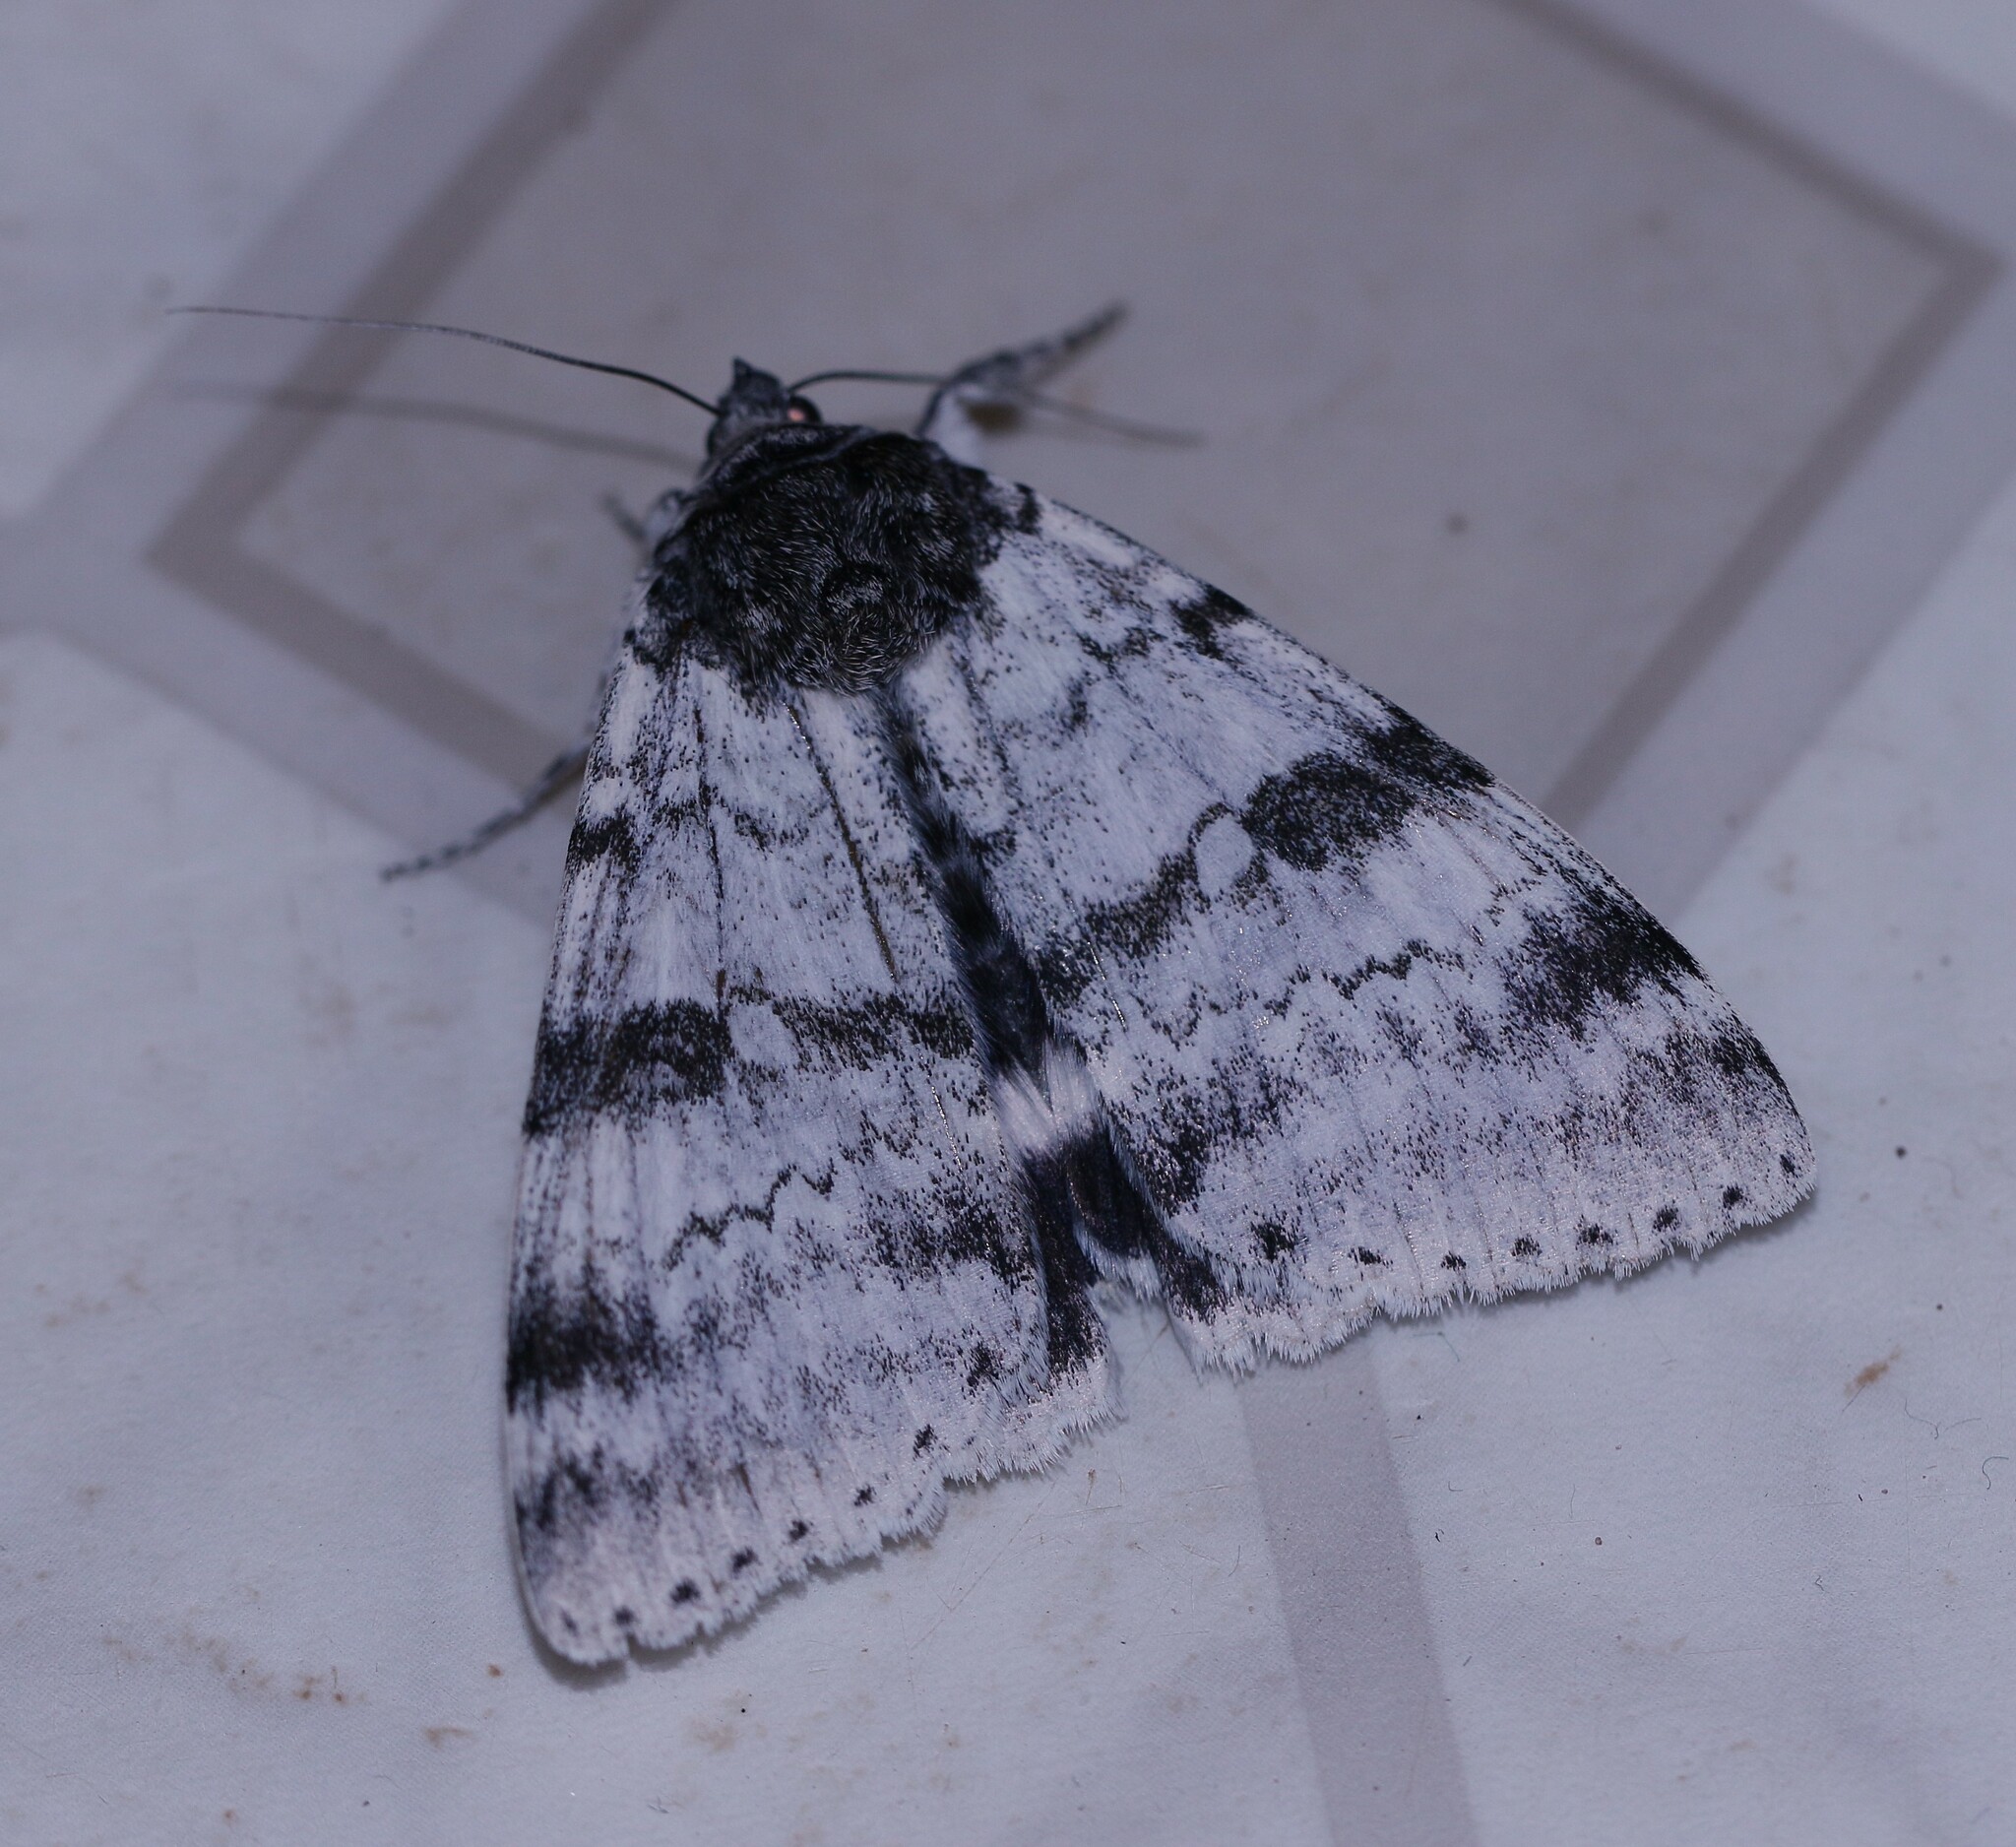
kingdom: Animalia
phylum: Arthropoda
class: Insecta
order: Lepidoptera
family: Erebidae
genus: Catocala
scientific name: Catocala relicta
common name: White underwing
